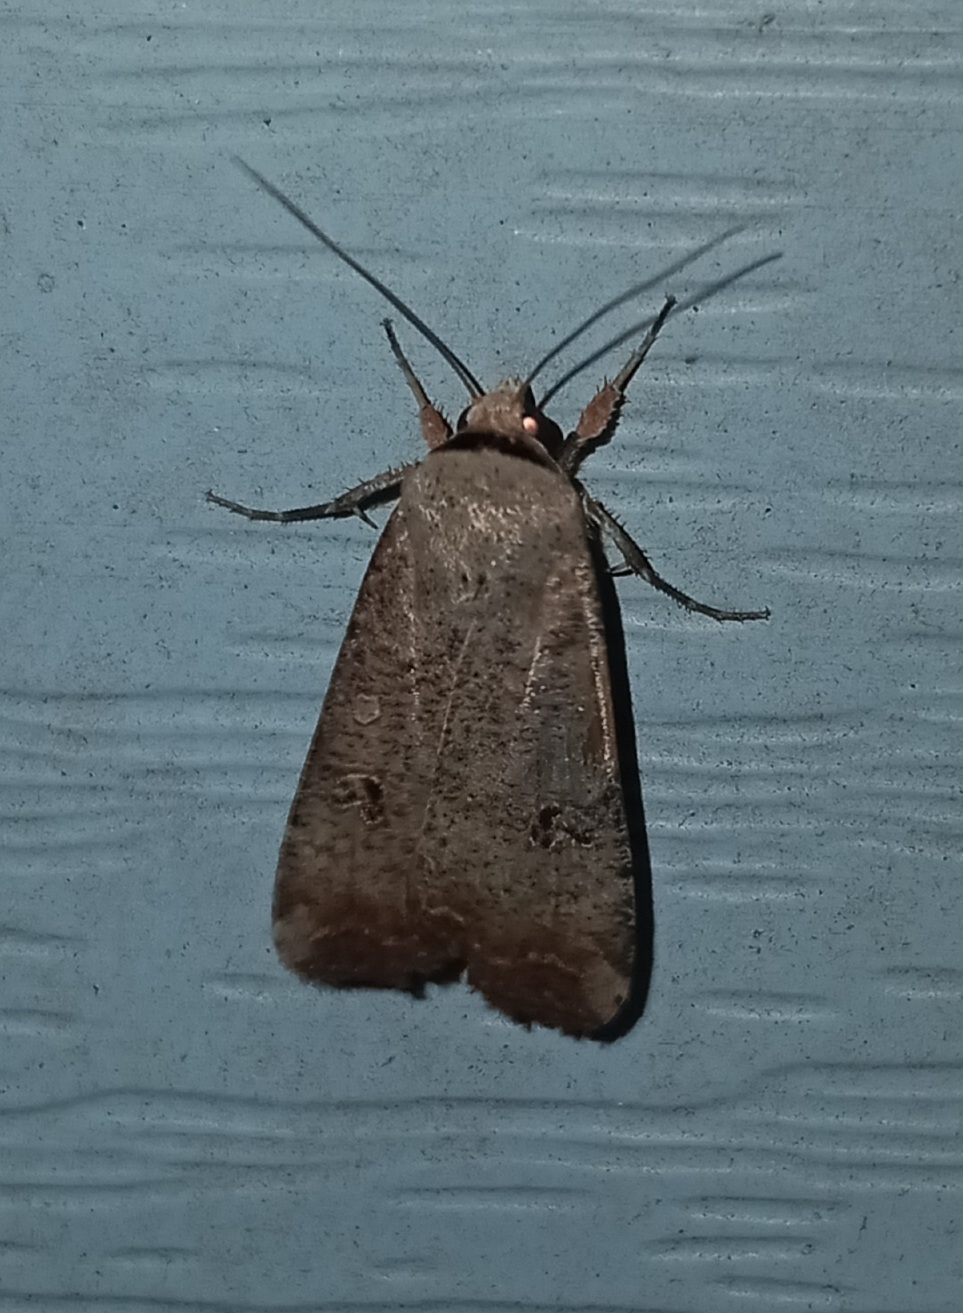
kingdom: Animalia
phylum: Arthropoda
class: Insecta
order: Lepidoptera
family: Noctuidae
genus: Anicla
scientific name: Anicla infecta
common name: Green cutworm
